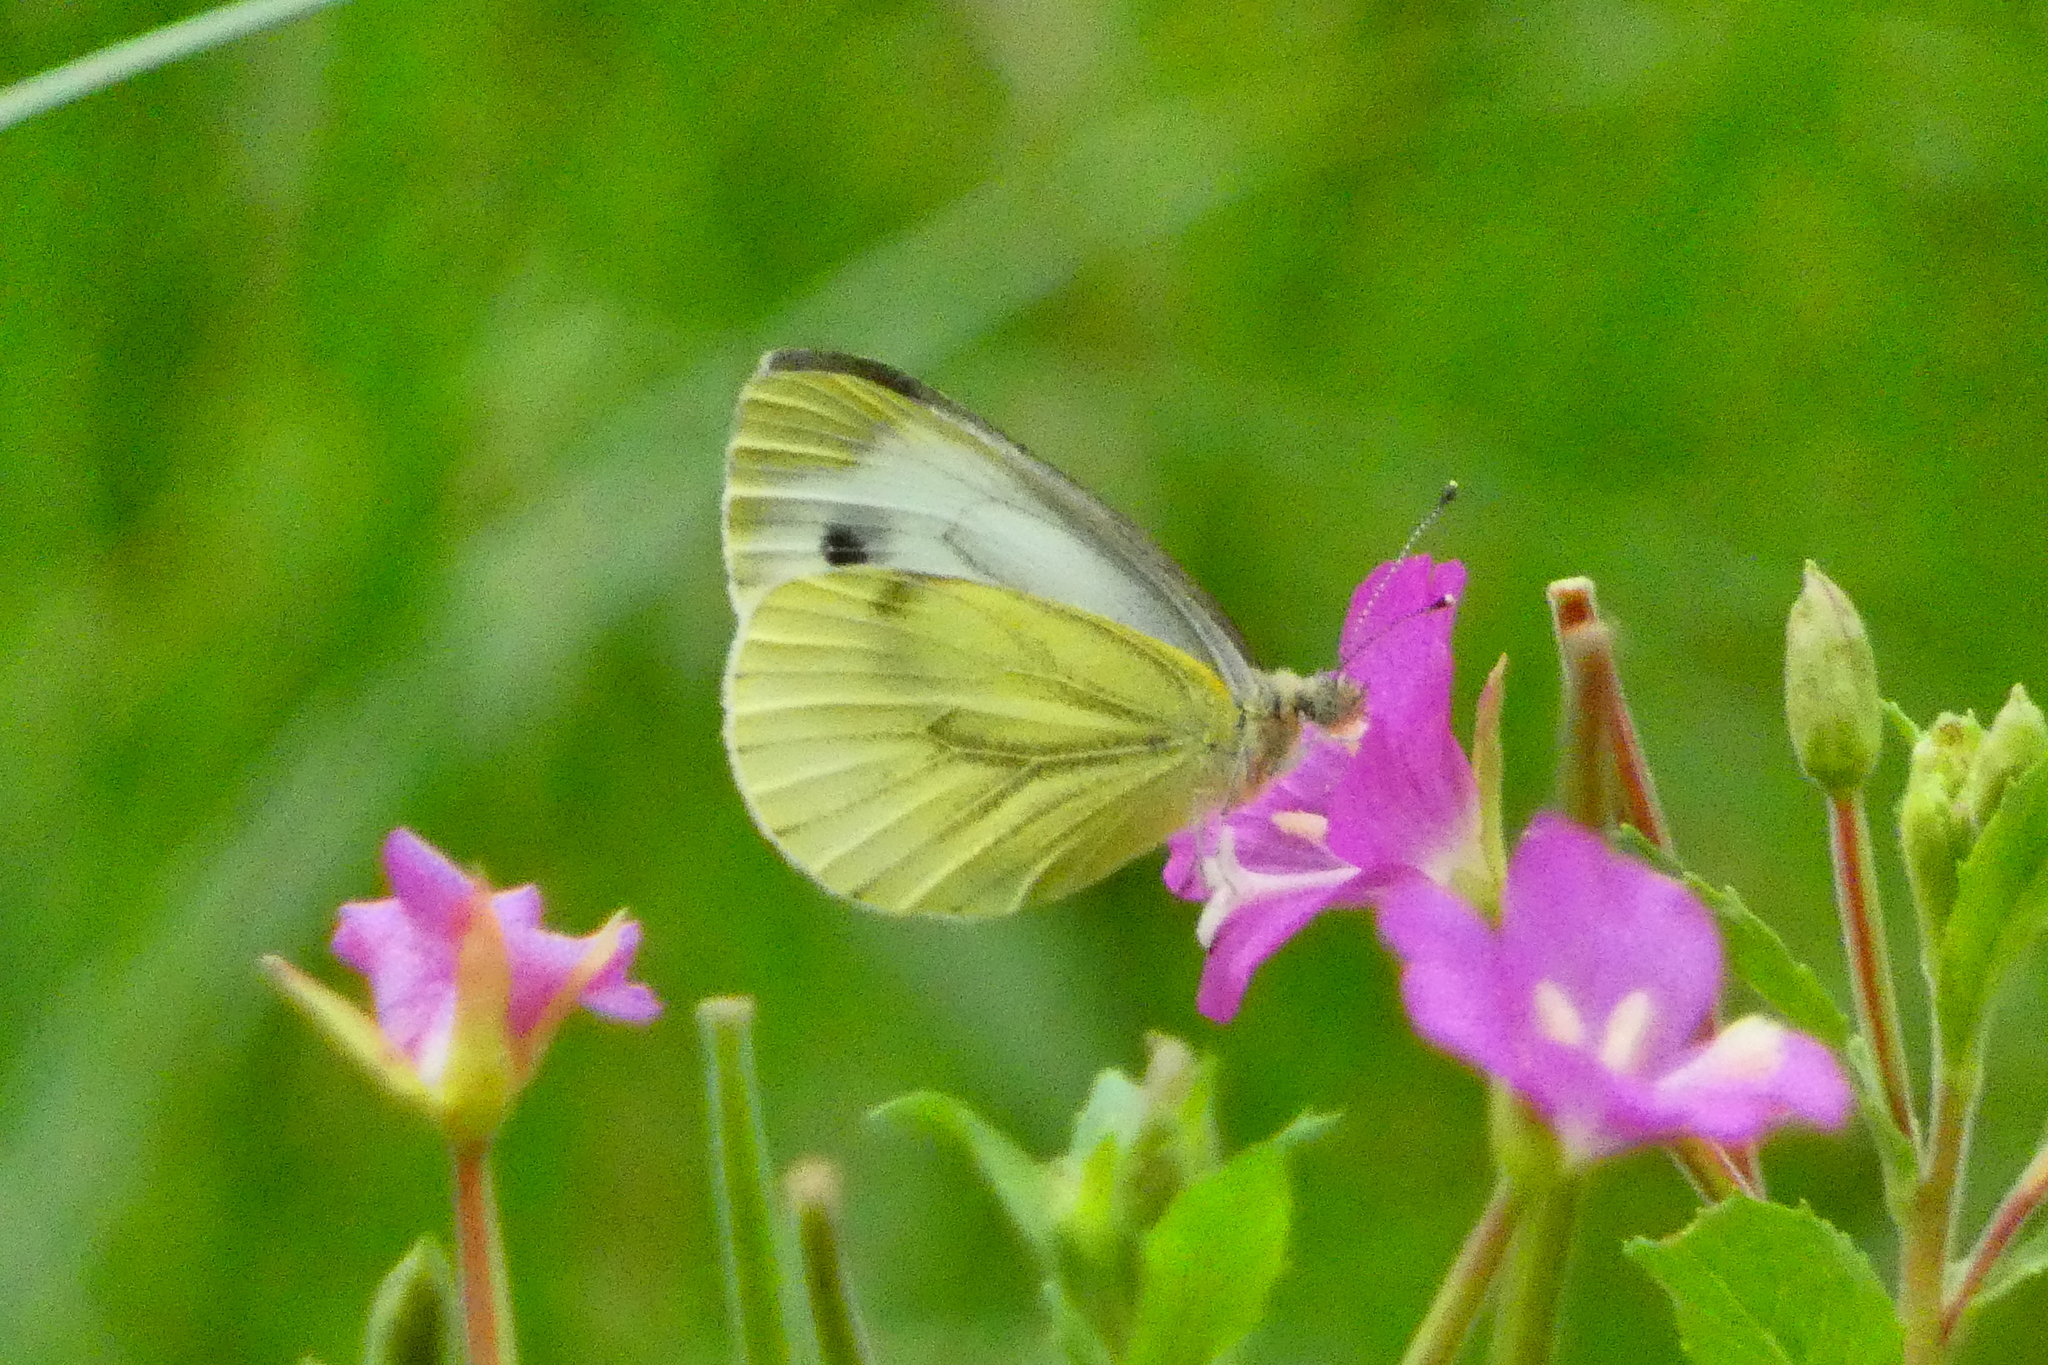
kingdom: Animalia
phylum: Arthropoda
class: Insecta
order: Lepidoptera
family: Pieridae
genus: Pieris
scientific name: Pieris napi
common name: Green-veined white
